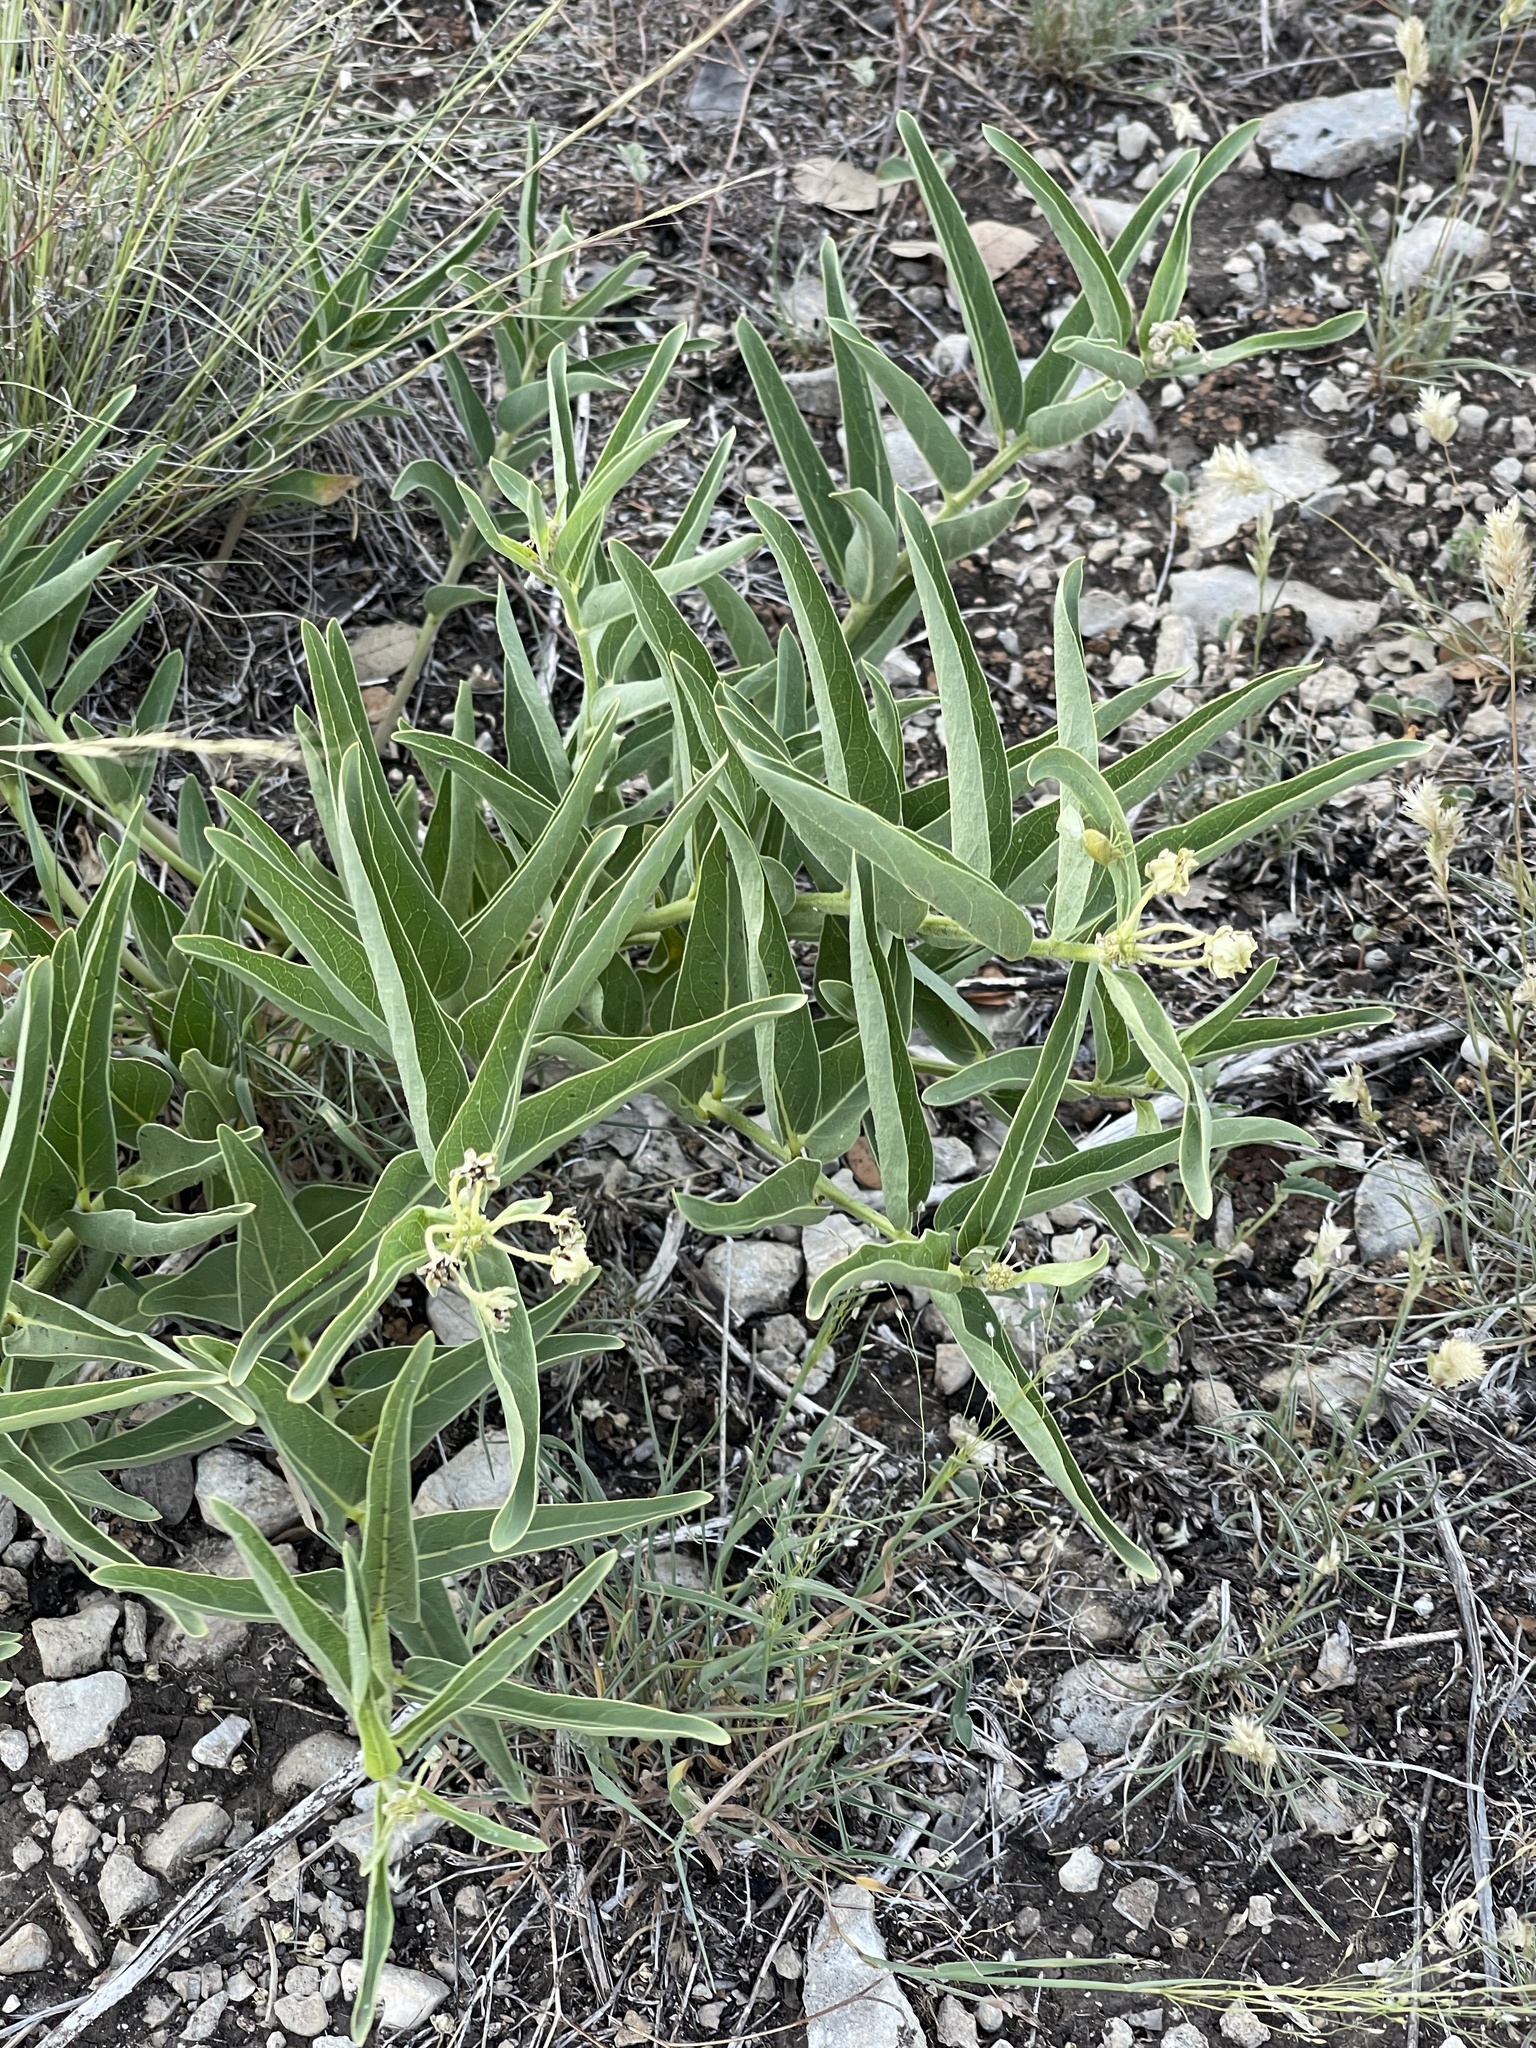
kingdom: Plantae
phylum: Tracheophyta
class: Magnoliopsida
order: Gentianales
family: Apocynaceae
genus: Asclepias
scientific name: Asclepias asperula
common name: Antelope horns
